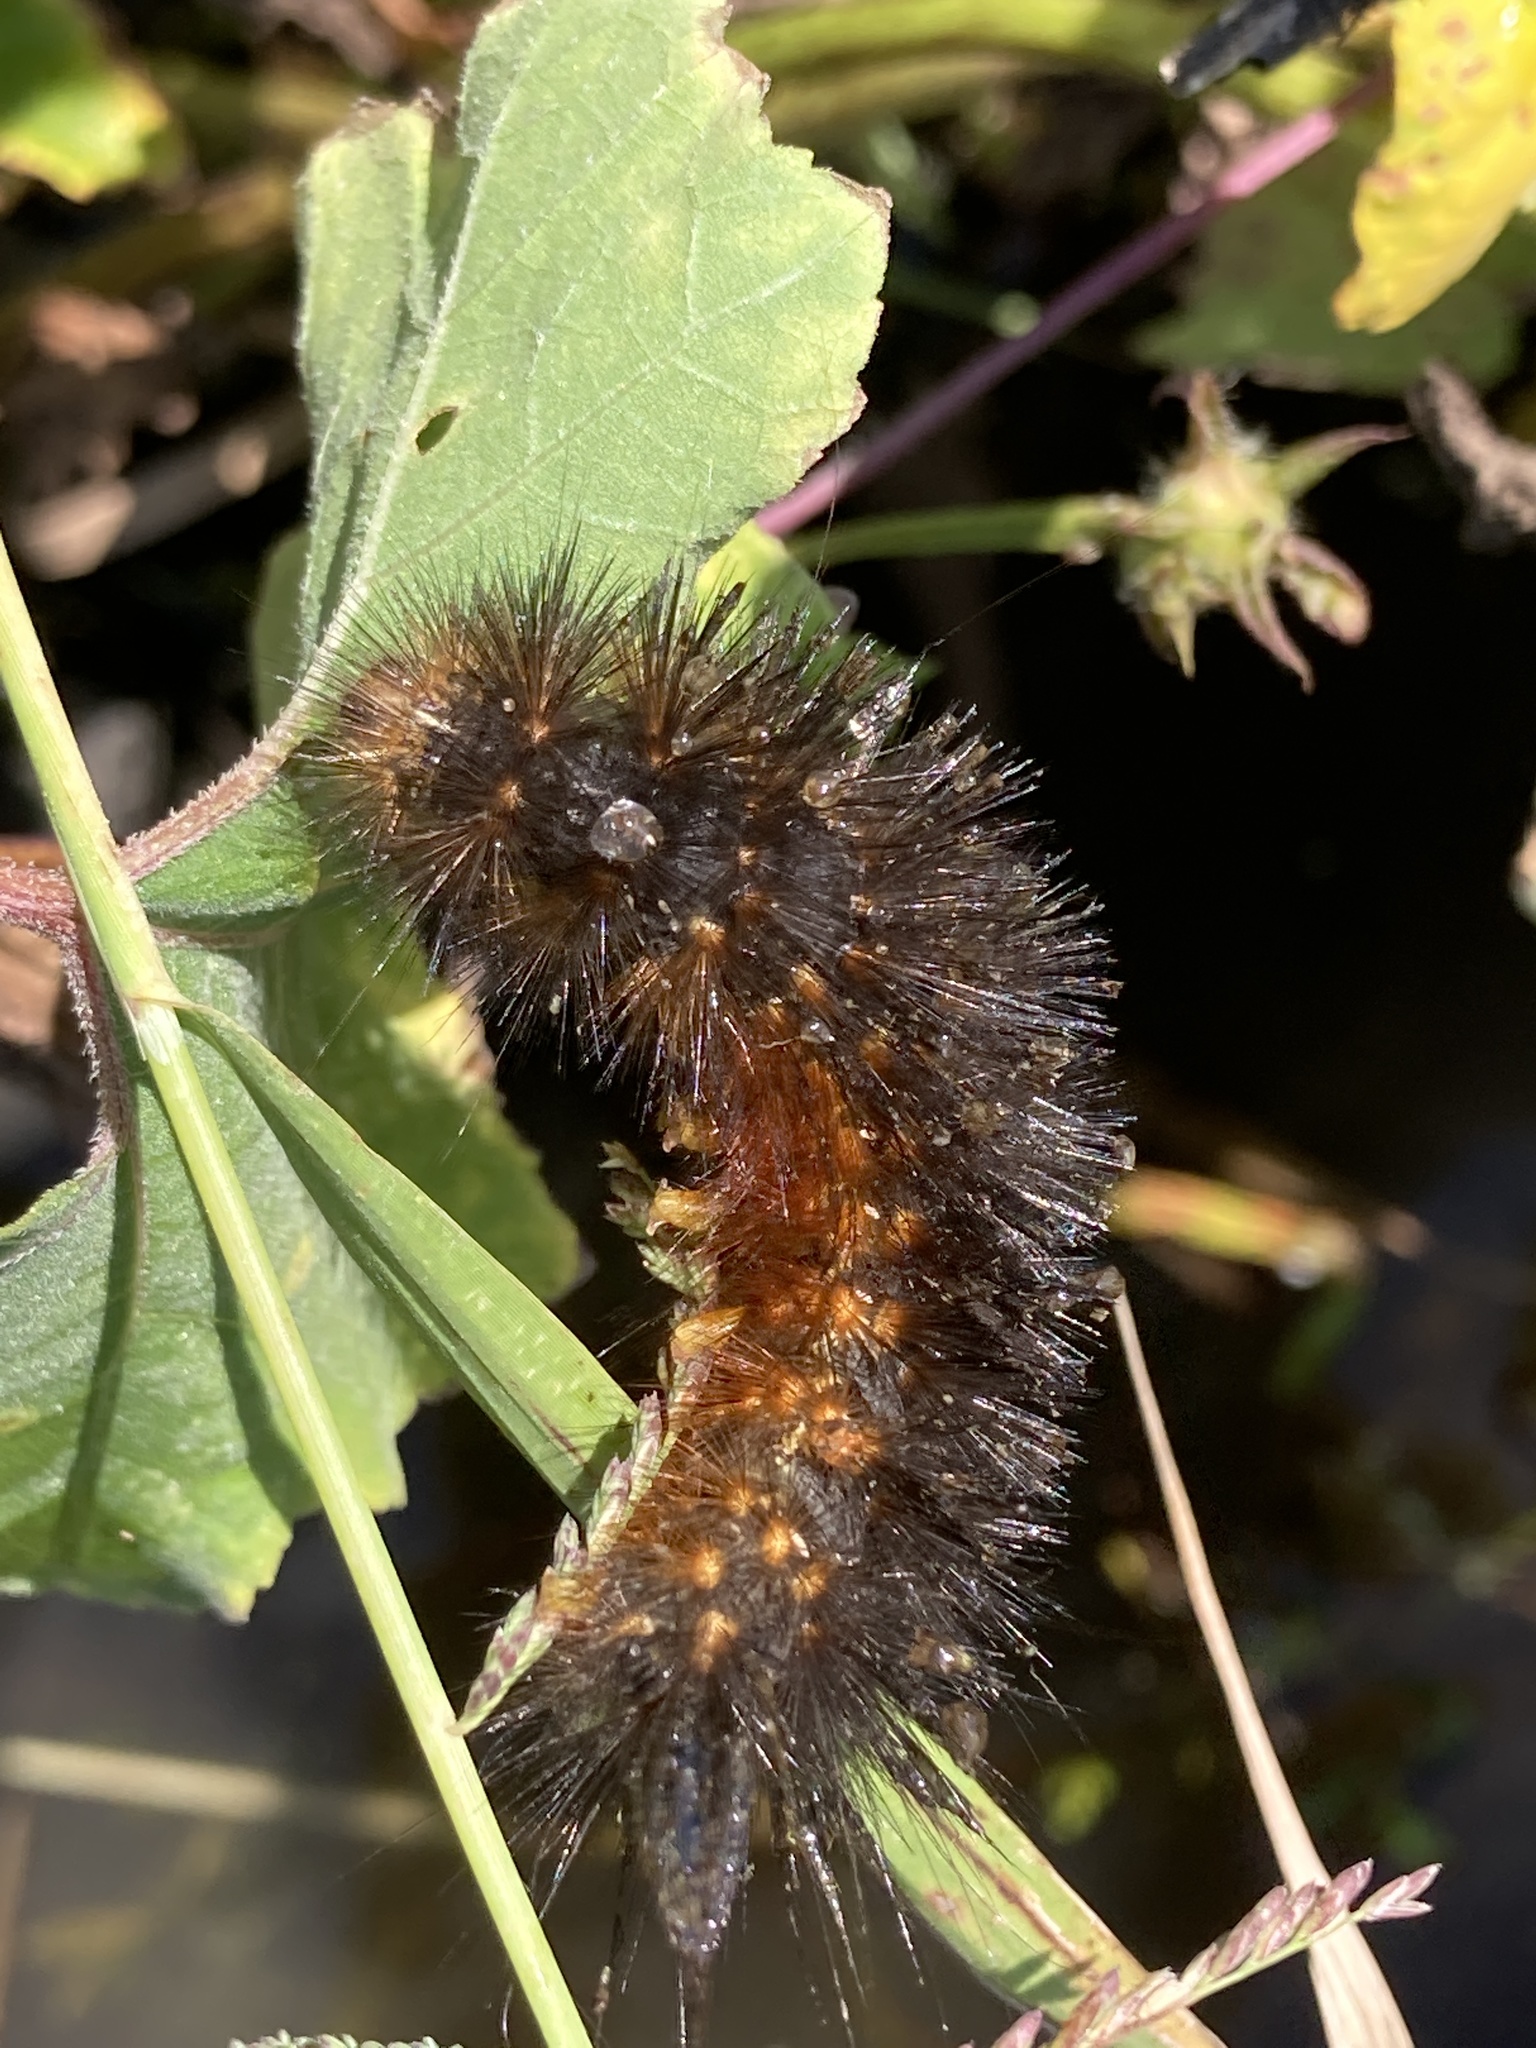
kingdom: Animalia
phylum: Arthropoda
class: Insecta
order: Lepidoptera
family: Erebidae
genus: Estigmene
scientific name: Estigmene acrea
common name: Salt marsh moth
